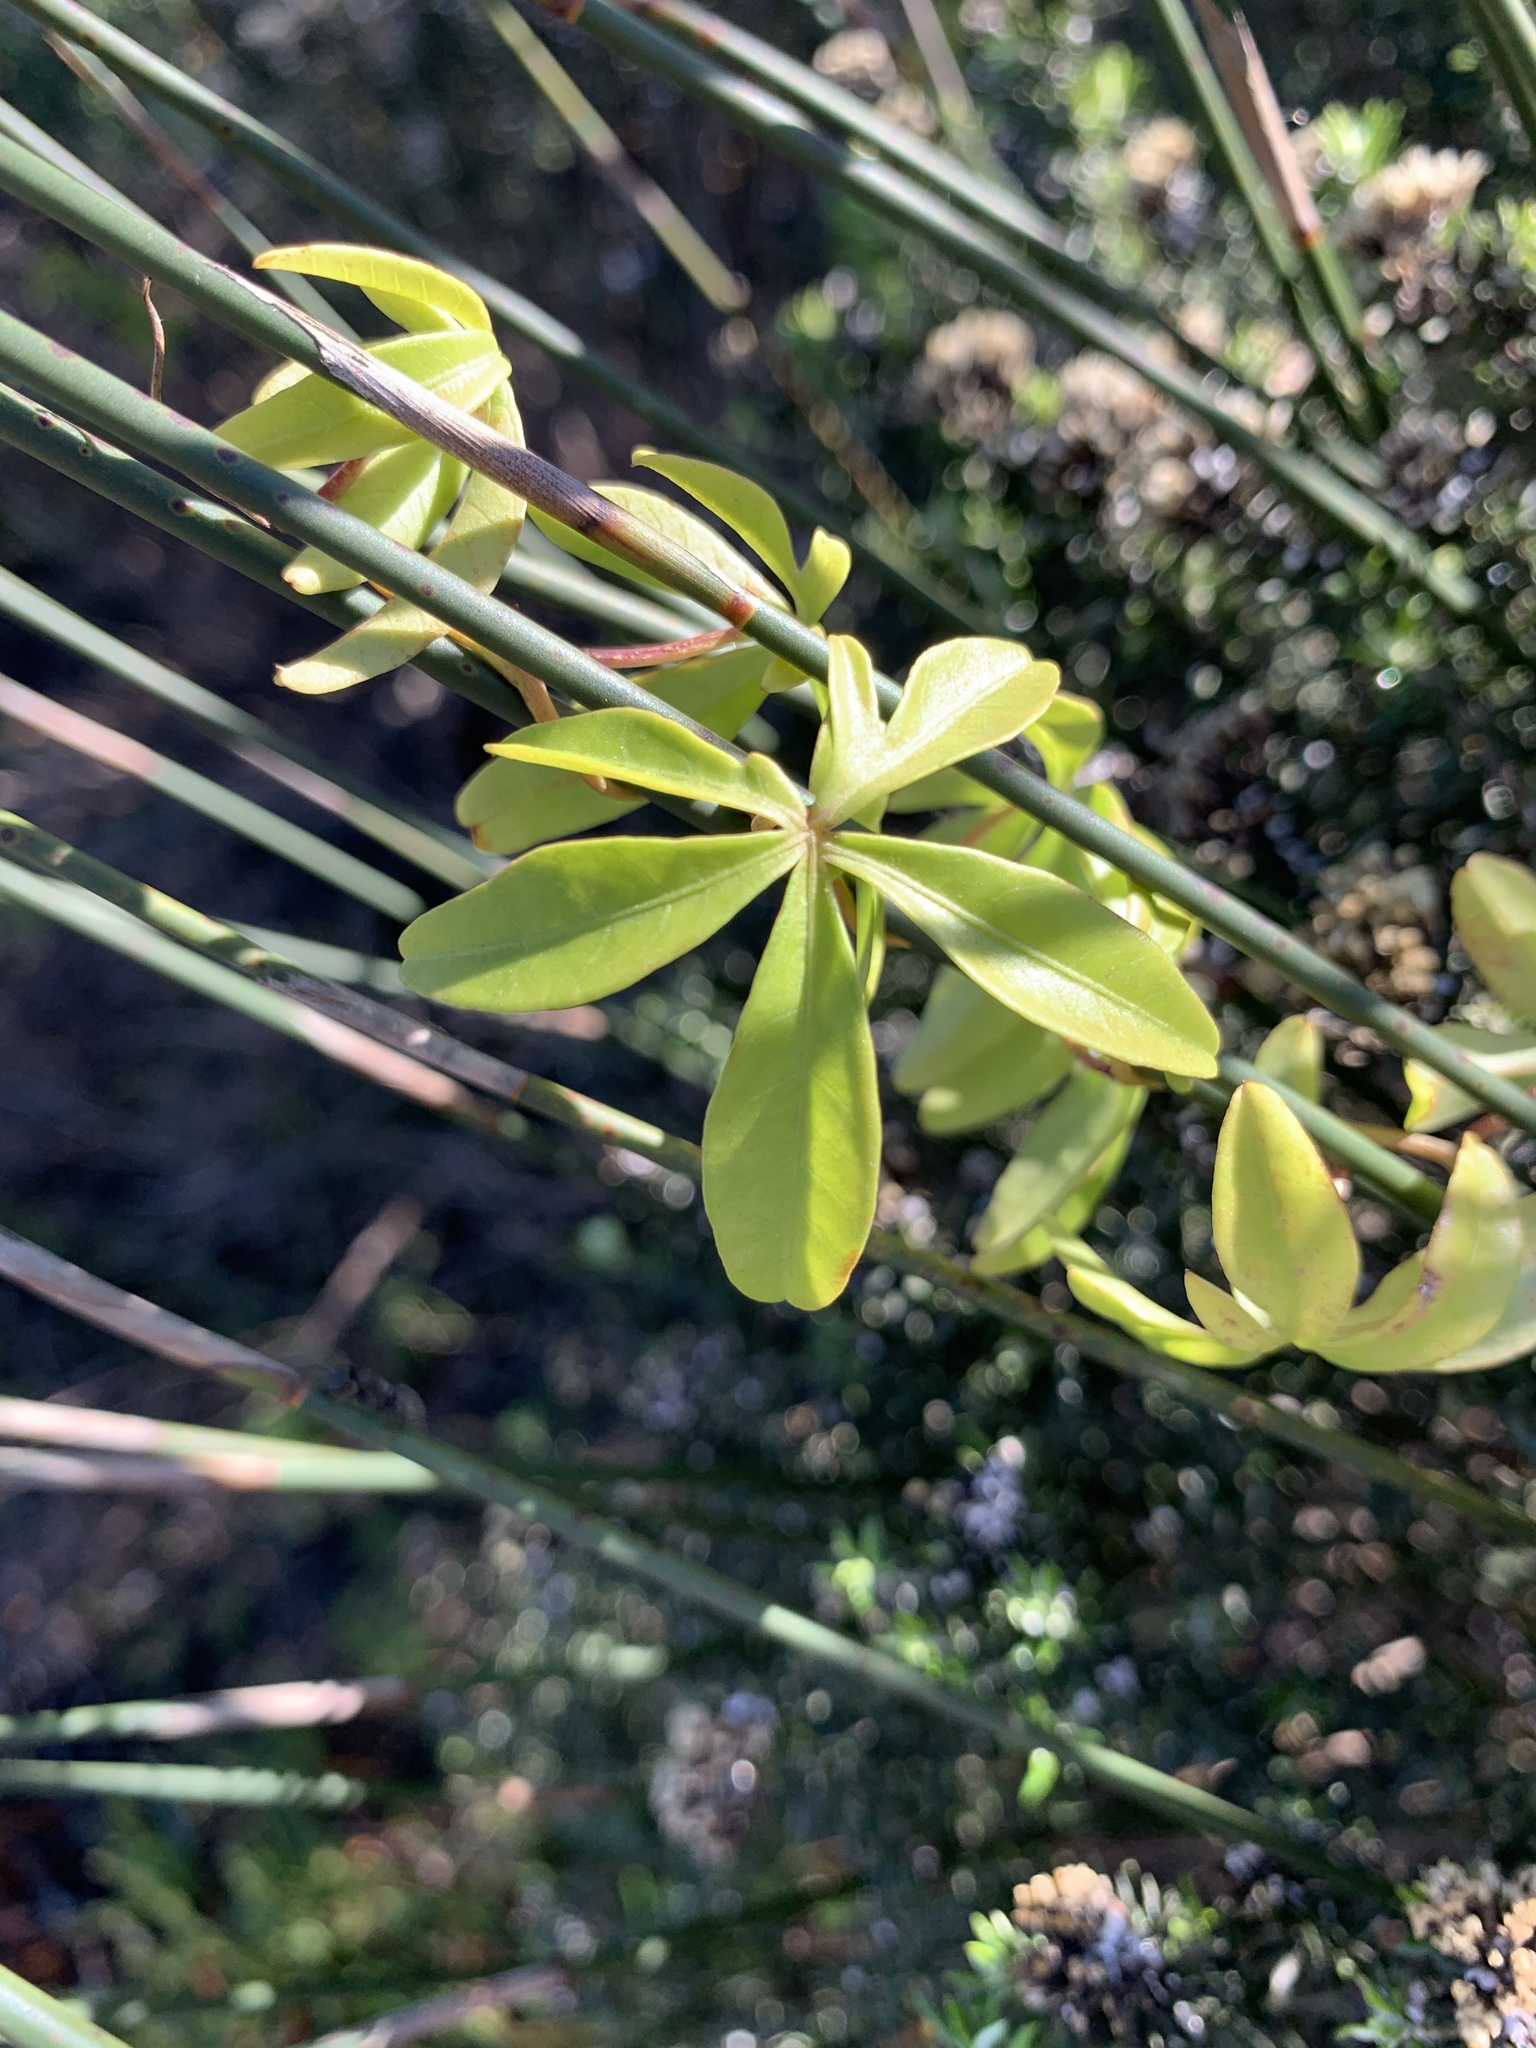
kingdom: Plantae
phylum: Tracheophyta
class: Magnoliopsida
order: Solanales
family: Convolvulaceae
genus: Ipomoea
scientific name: Ipomoea cairica
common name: Mile a minute vine
